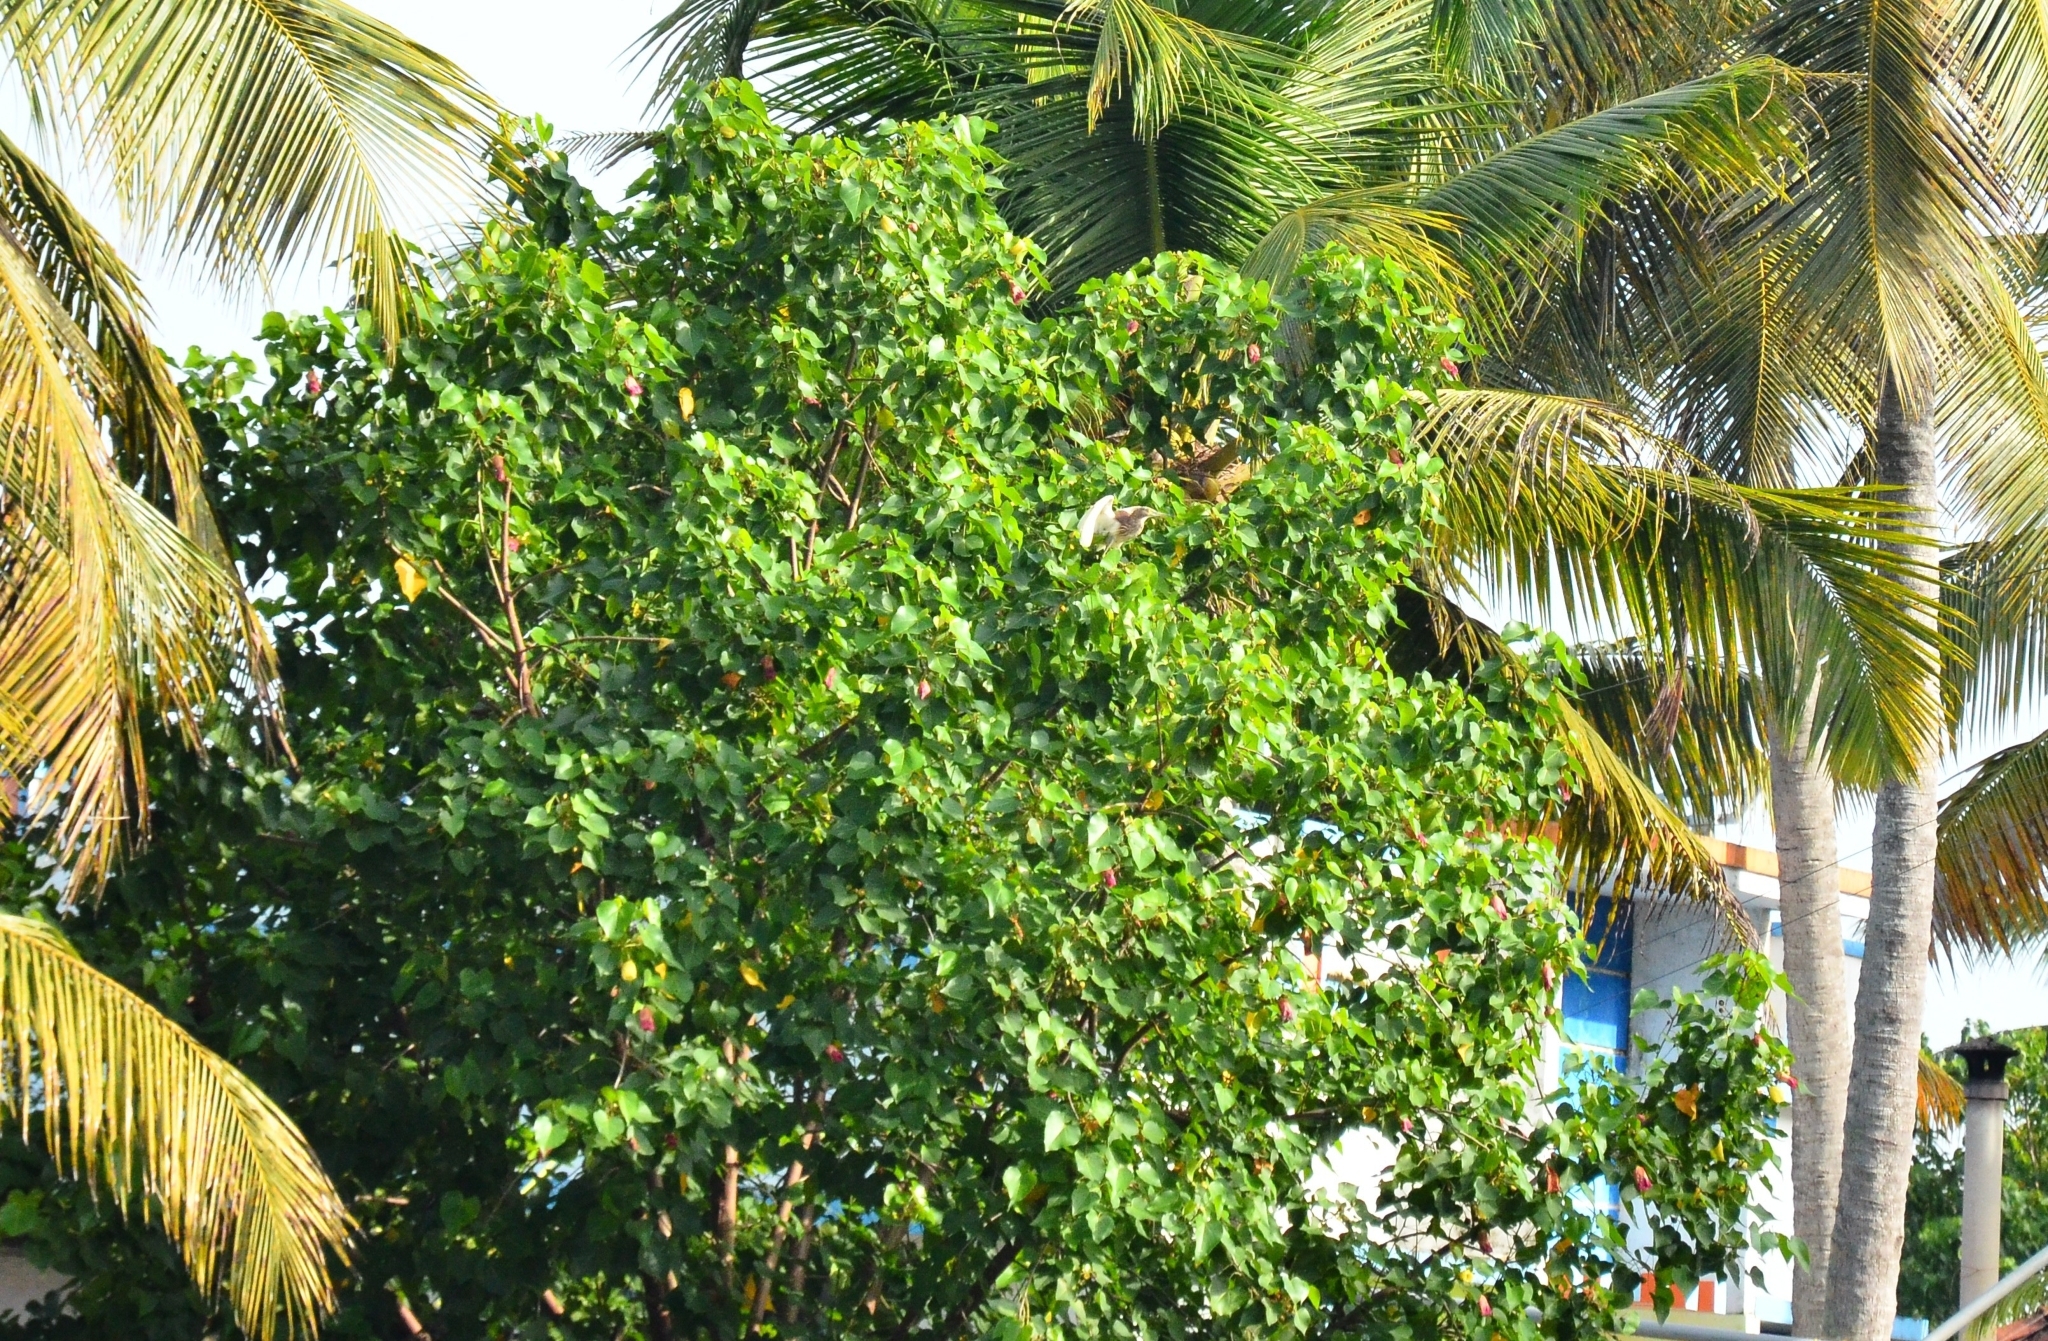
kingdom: Plantae
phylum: Tracheophyta
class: Magnoliopsida
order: Malvales
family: Malvaceae
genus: Thespesia
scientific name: Thespesia populnea
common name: Seaside mahoe
